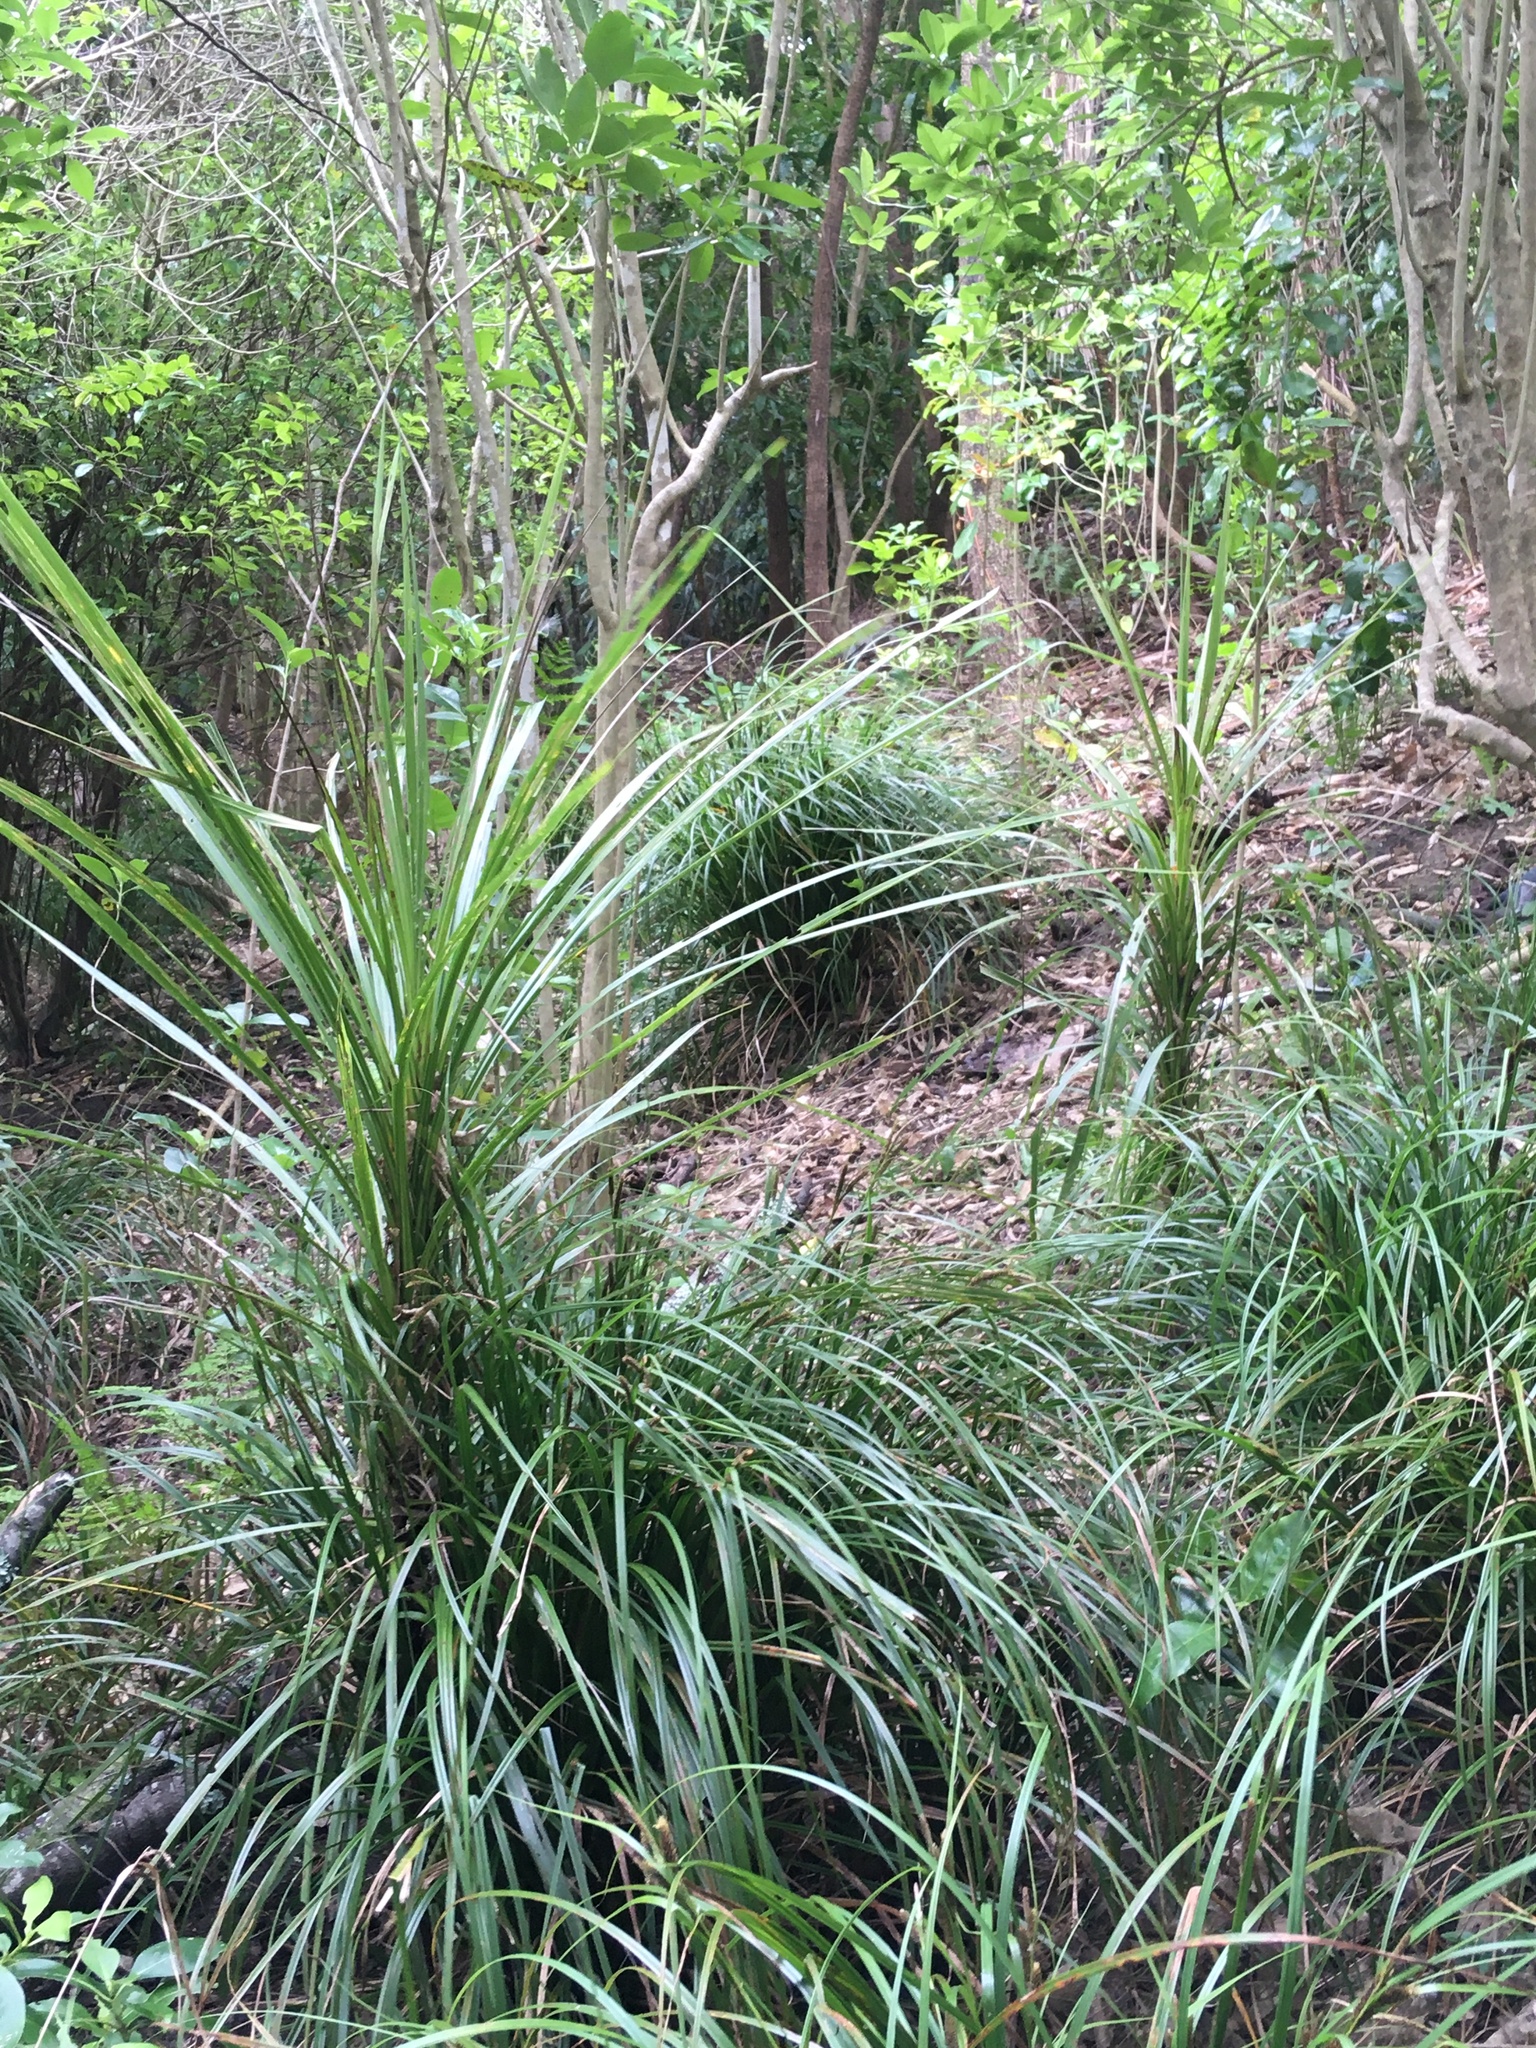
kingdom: Plantae
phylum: Tracheophyta
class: Liliopsida
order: Asparagales
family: Asparagaceae
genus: Cordyline
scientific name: Cordyline australis
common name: Cabbage-palm
